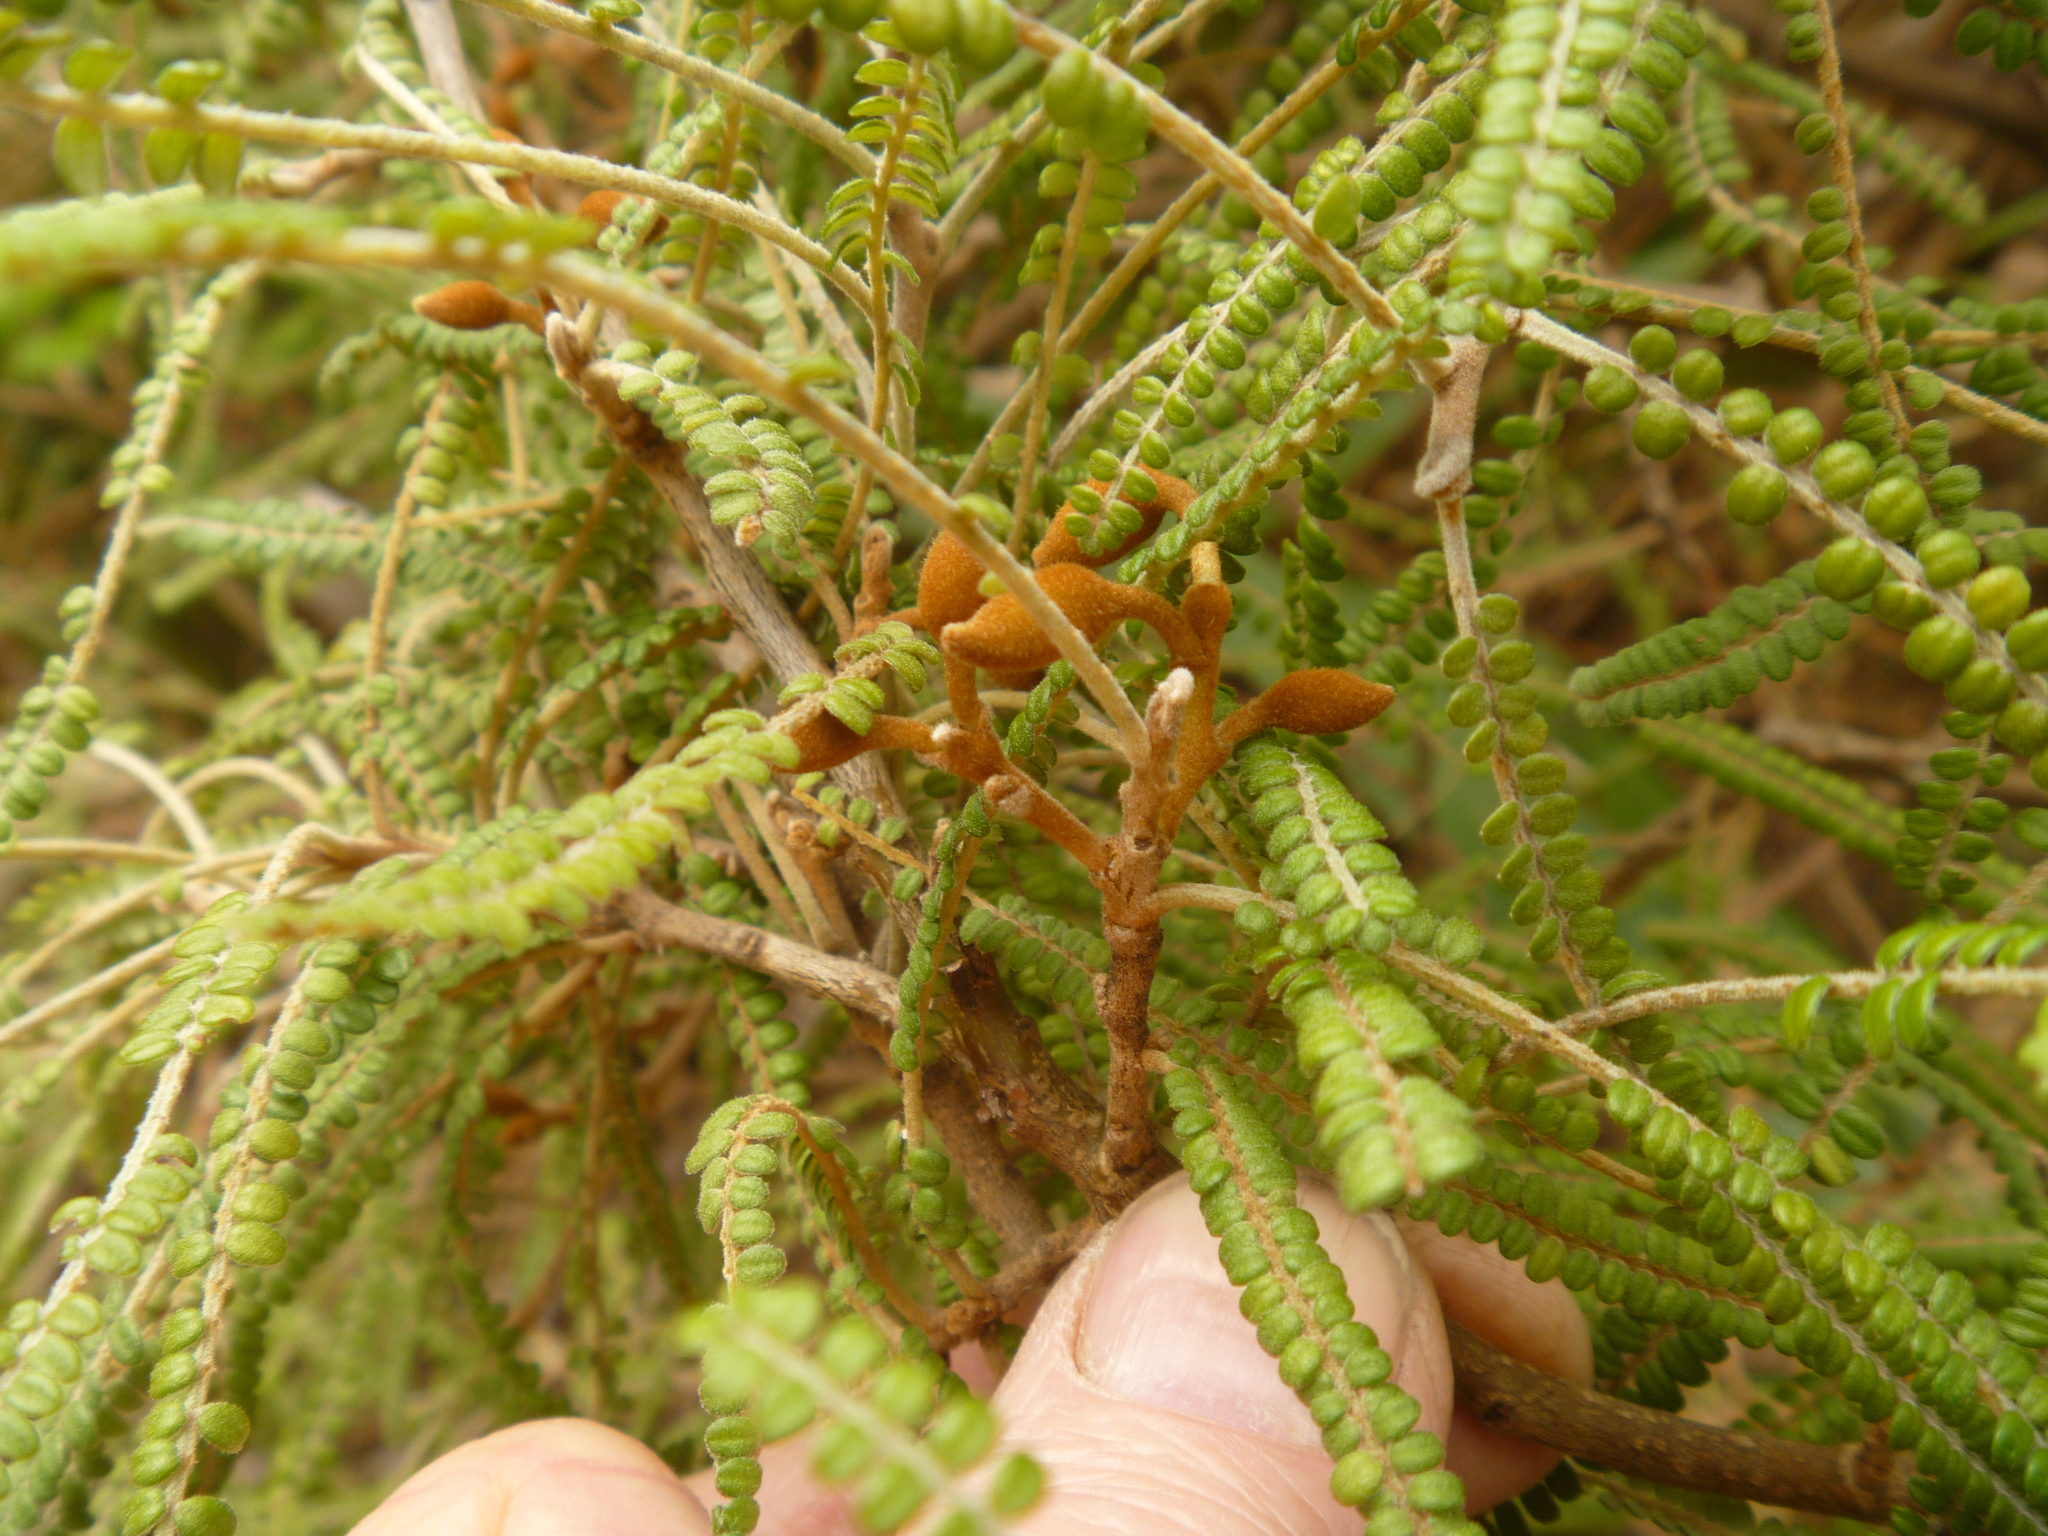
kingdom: Plantae
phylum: Tracheophyta
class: Magnoliopsida
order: Fabales
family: Fabaceae
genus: Sophora
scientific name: Sophora fulvida
